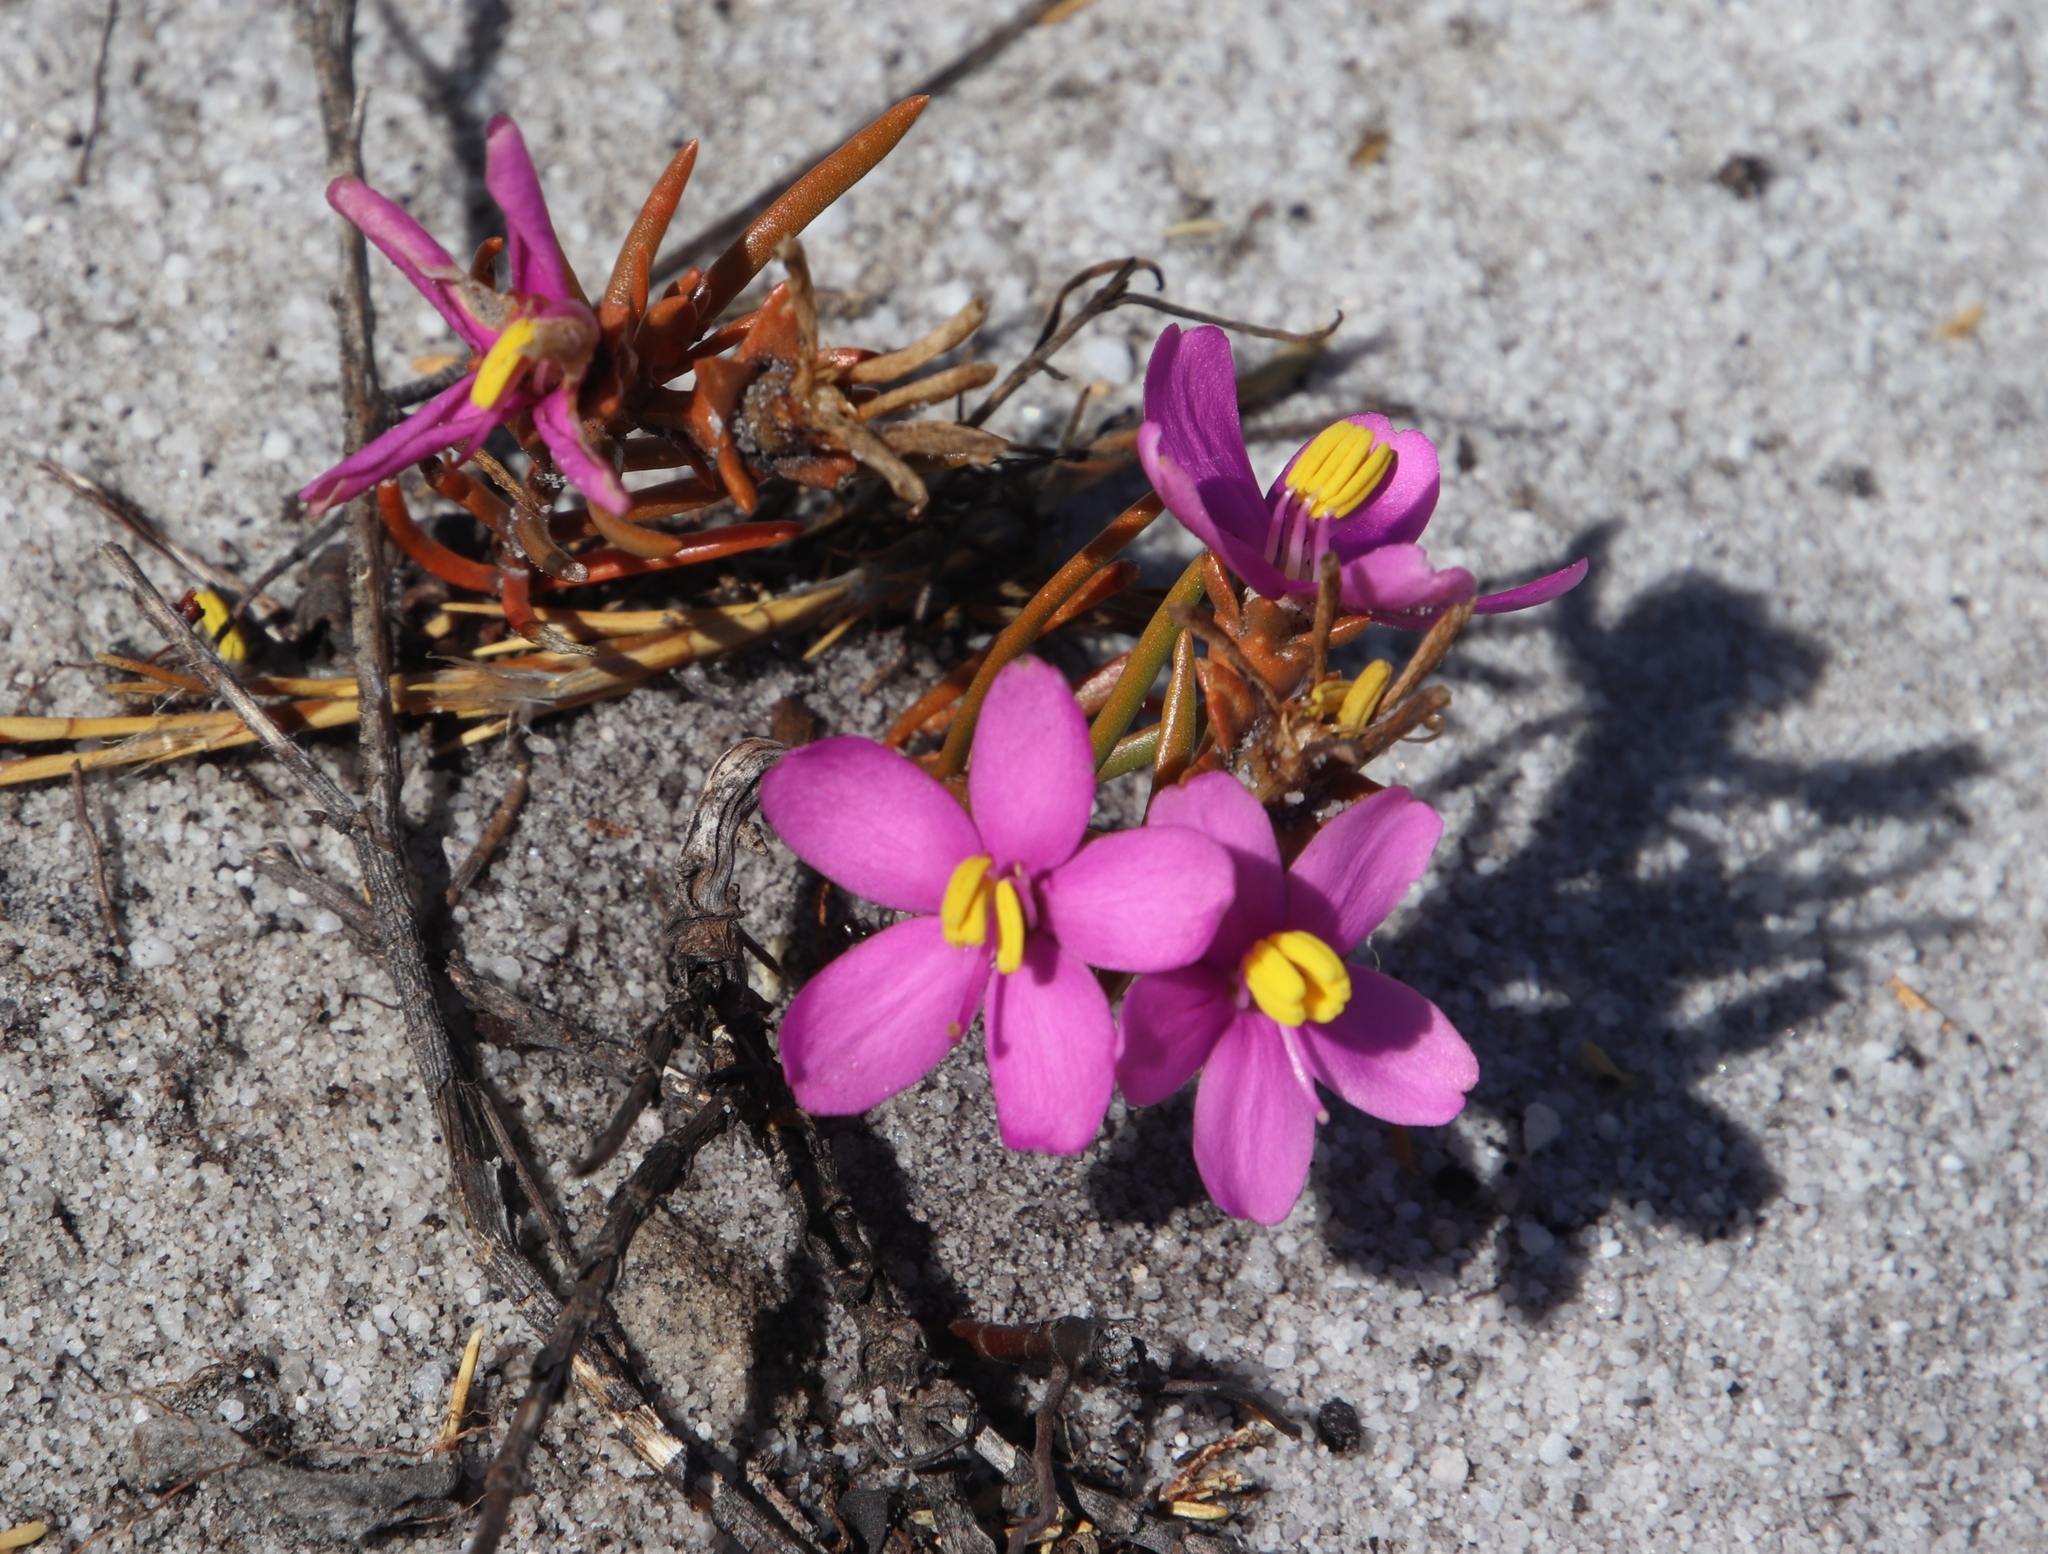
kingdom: Plantae
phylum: Tracheophyta
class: Magnoliopsida
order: Gentianales
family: Gentianaceae
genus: Chironia
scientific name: Chironia linoides
